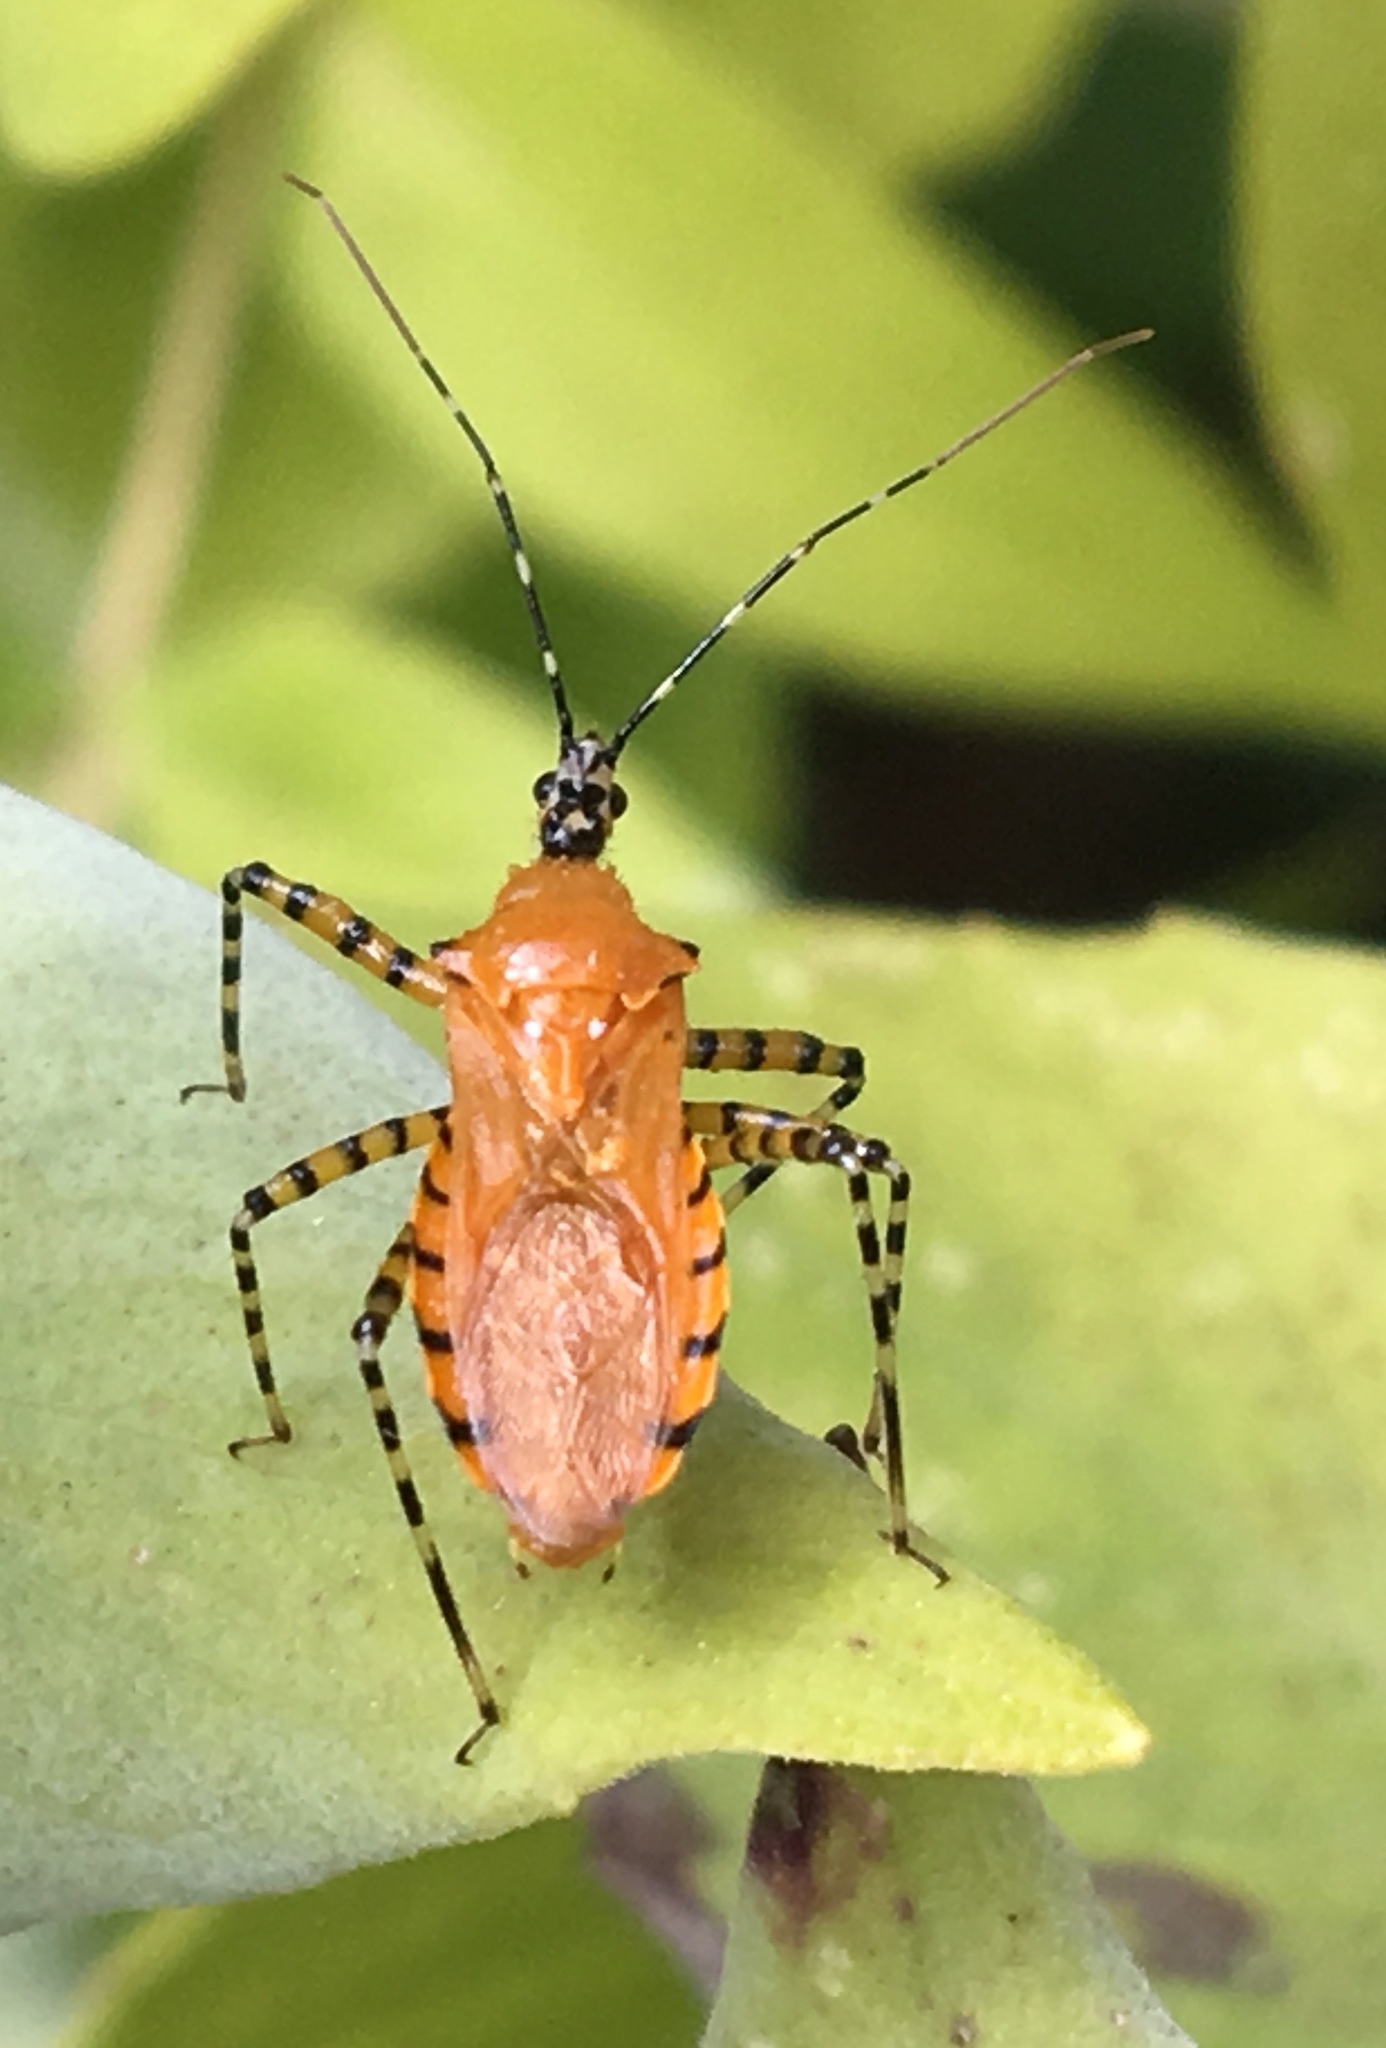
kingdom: Animalia
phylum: Arthropoda
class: Insecta
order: Hemiptera
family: Reduviidae
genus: Pselliopus
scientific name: Pselliopus barberi
